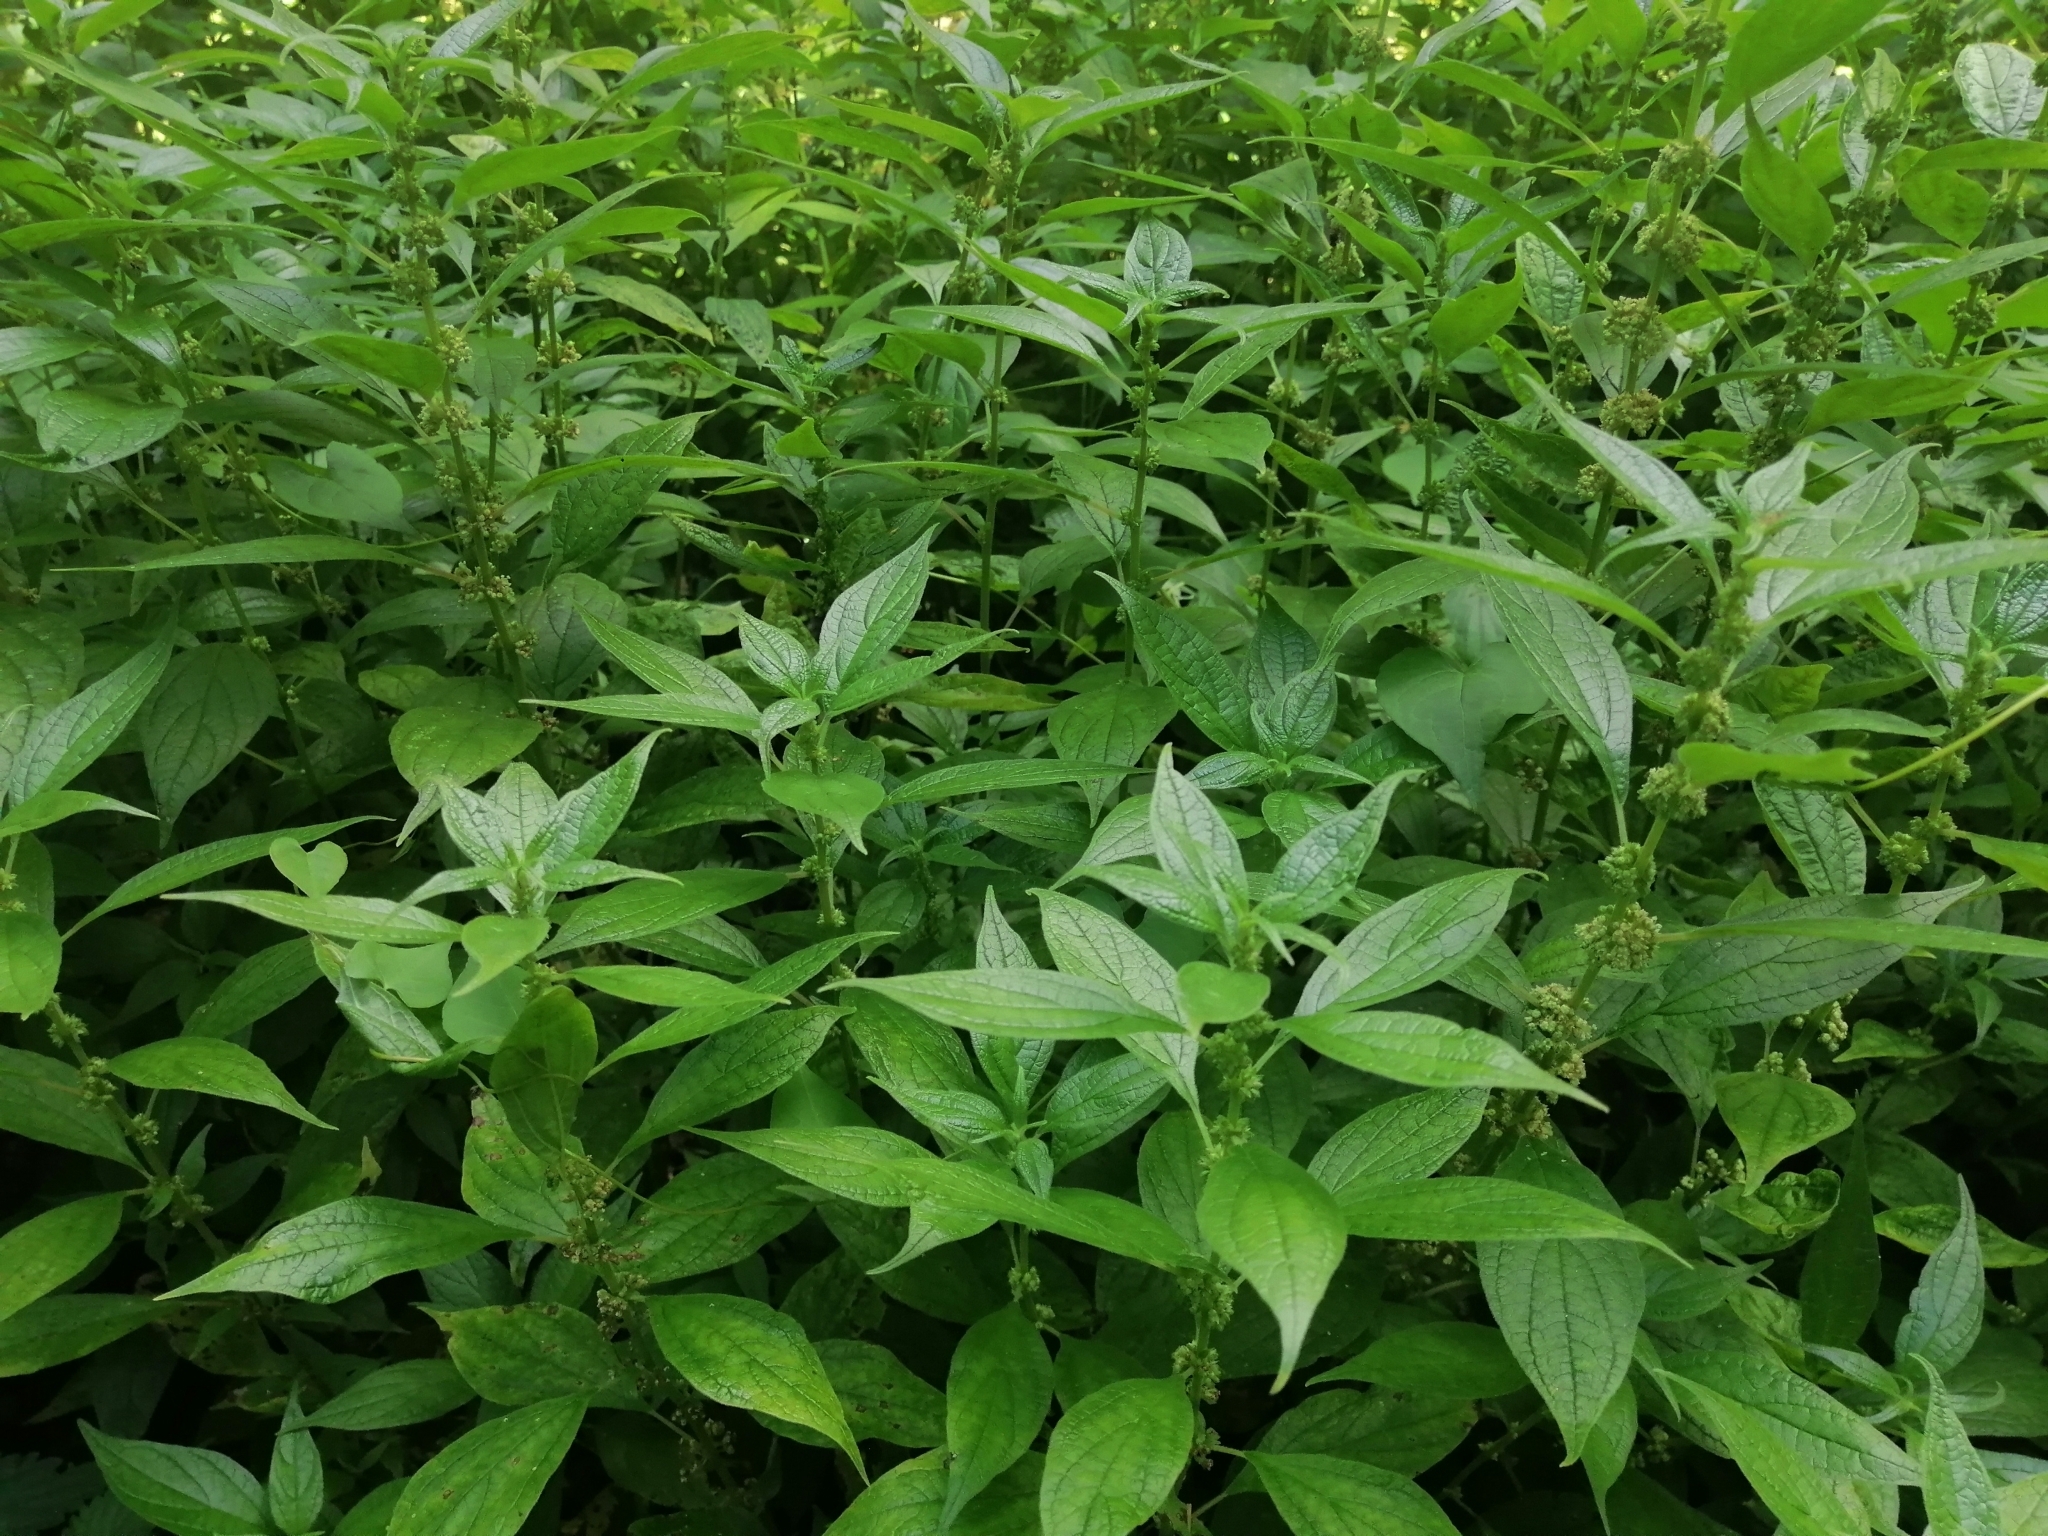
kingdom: Plantae
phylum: Tracheophyta
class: Magnoliopsida
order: Rosales
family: Urticaceae
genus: Parietaria
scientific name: Parietaria officinalis
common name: Eastern pellitory-of-the-wall
